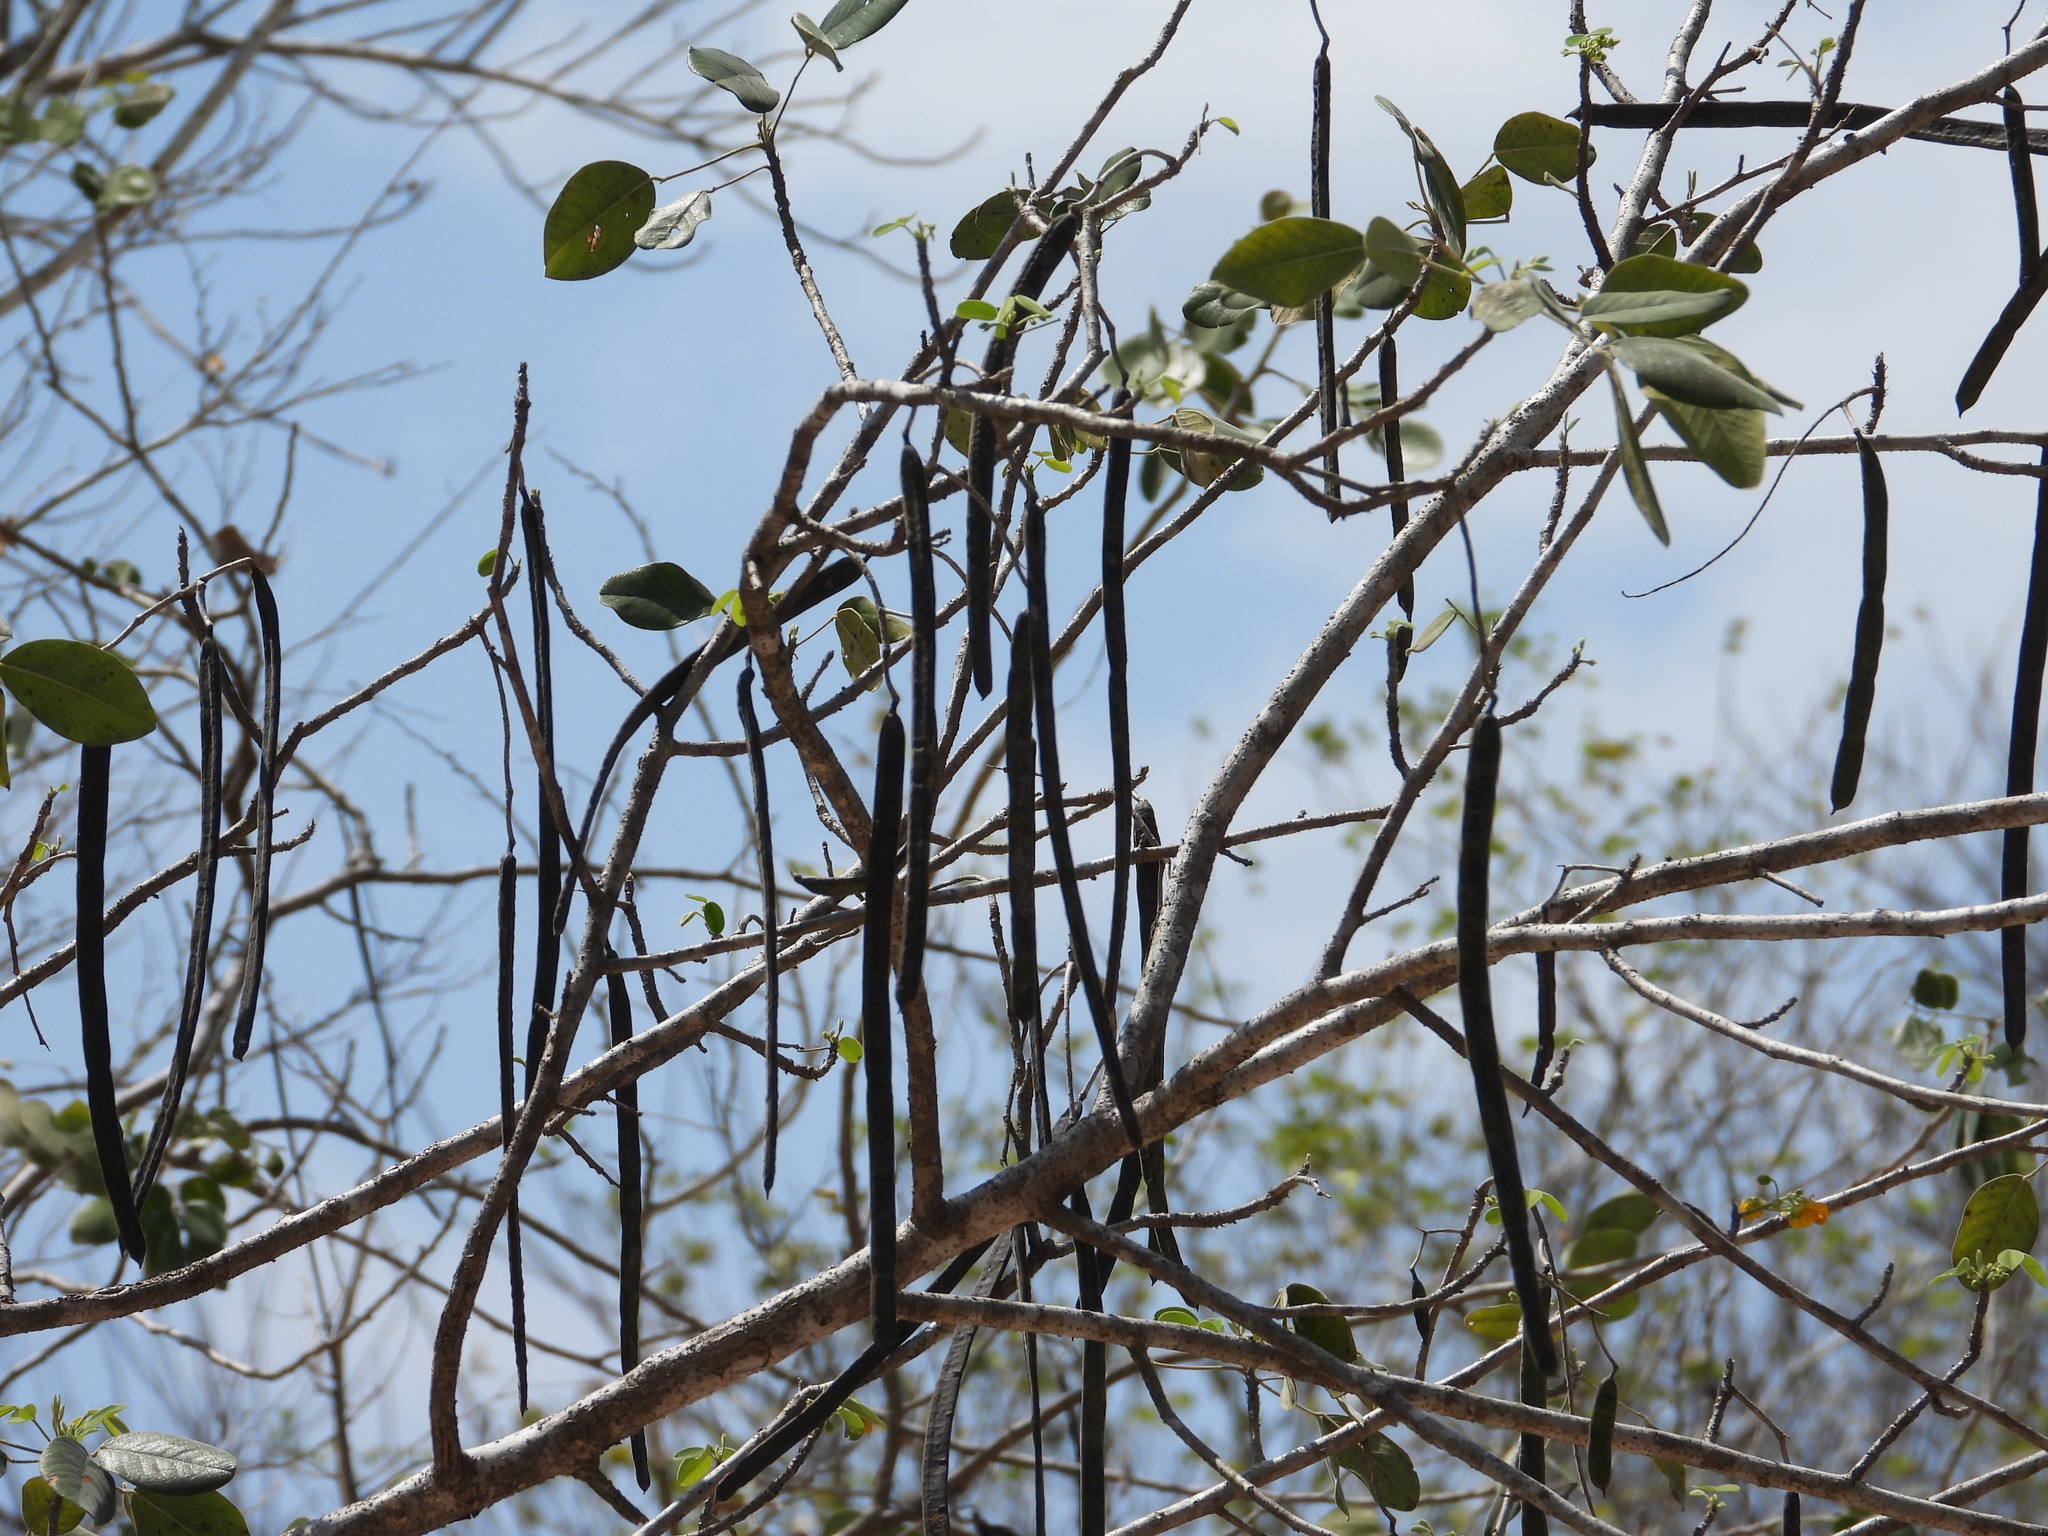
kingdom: Plantae
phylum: Tracheophyta
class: Magnoliopsida
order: Fabales
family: Fabaceae
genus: Senna
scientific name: Senna atomaria
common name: Flor de san jose
